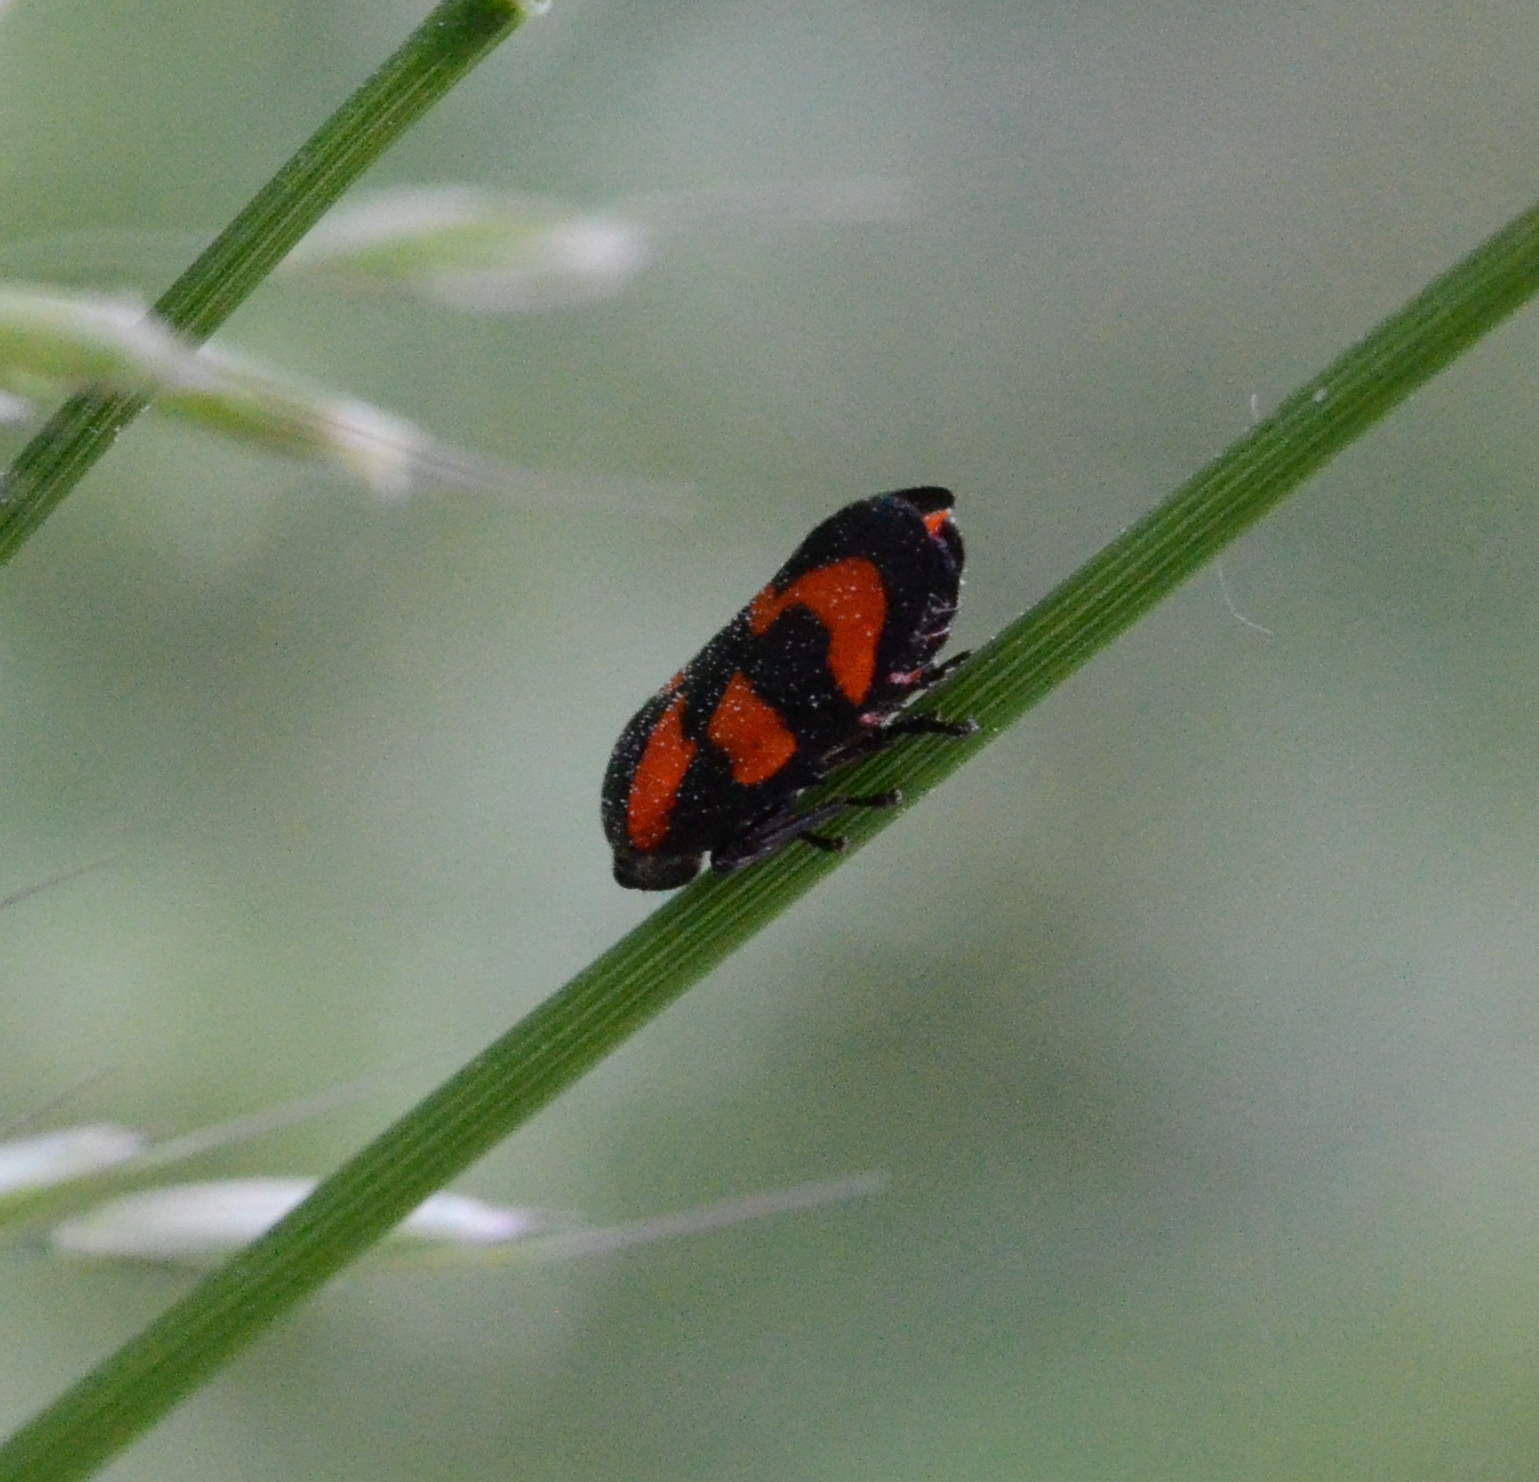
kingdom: Animalia
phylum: Arthropoda
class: Insecta
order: Hemiptera
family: Cercopidae
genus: Cercopis
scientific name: Cercopis vulnerata
